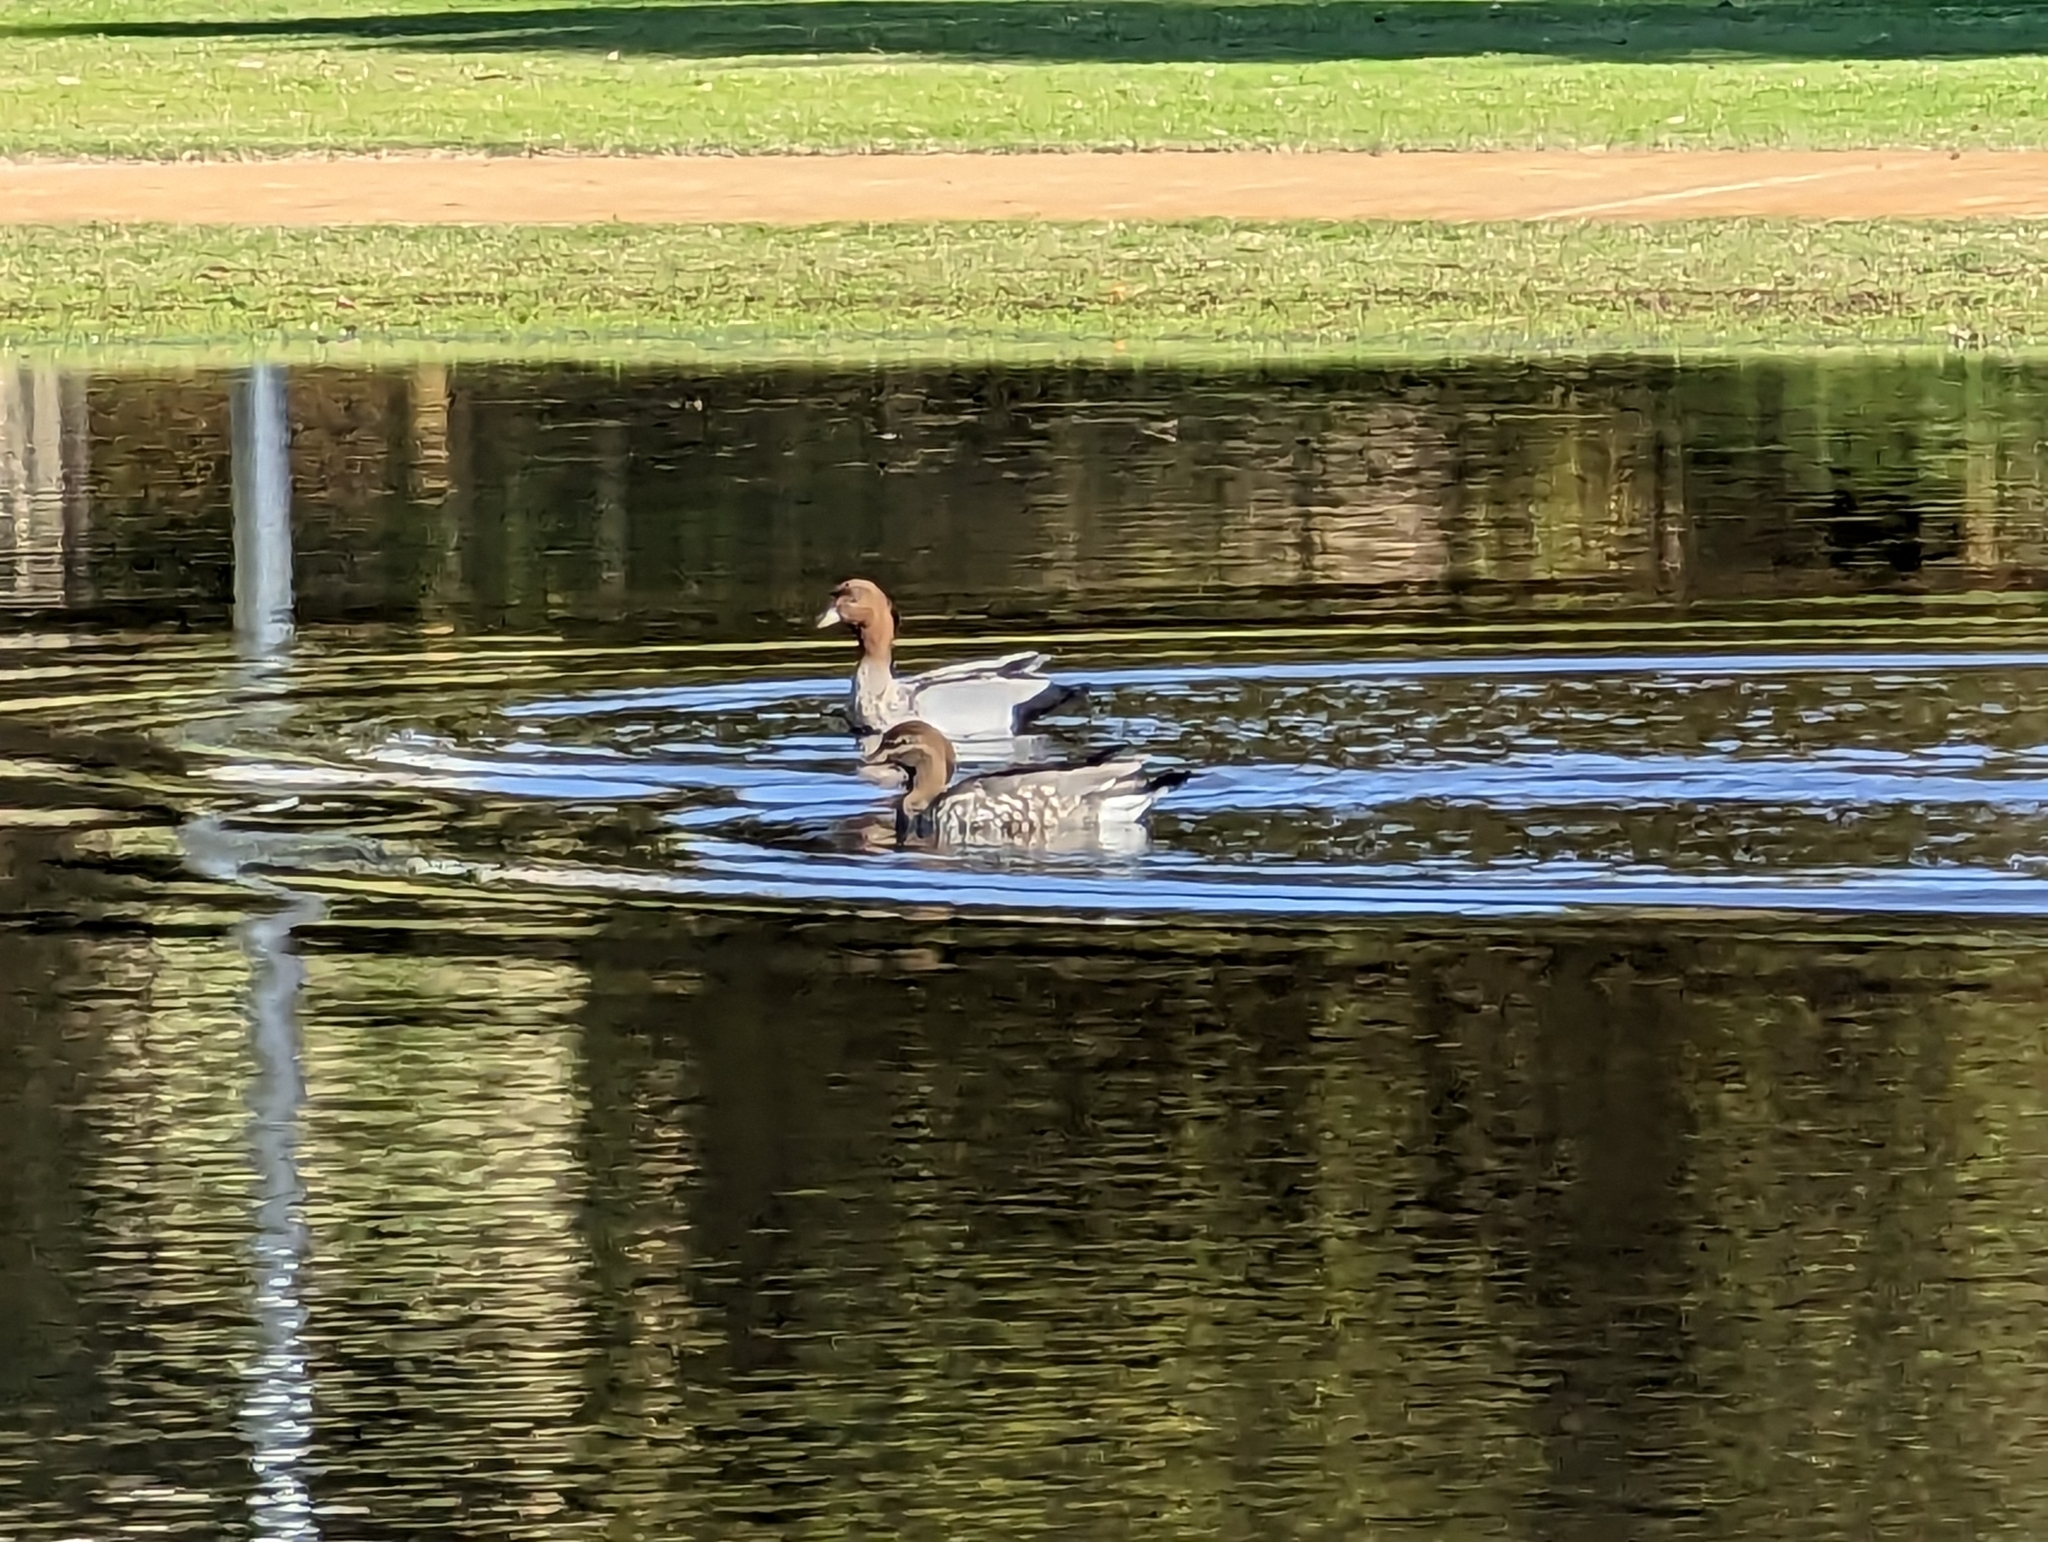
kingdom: Animalia
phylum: Chordata
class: Aves
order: Anseriformes
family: Anatidae
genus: Chenonetta
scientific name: Chenonetta jubata
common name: Maned duck
